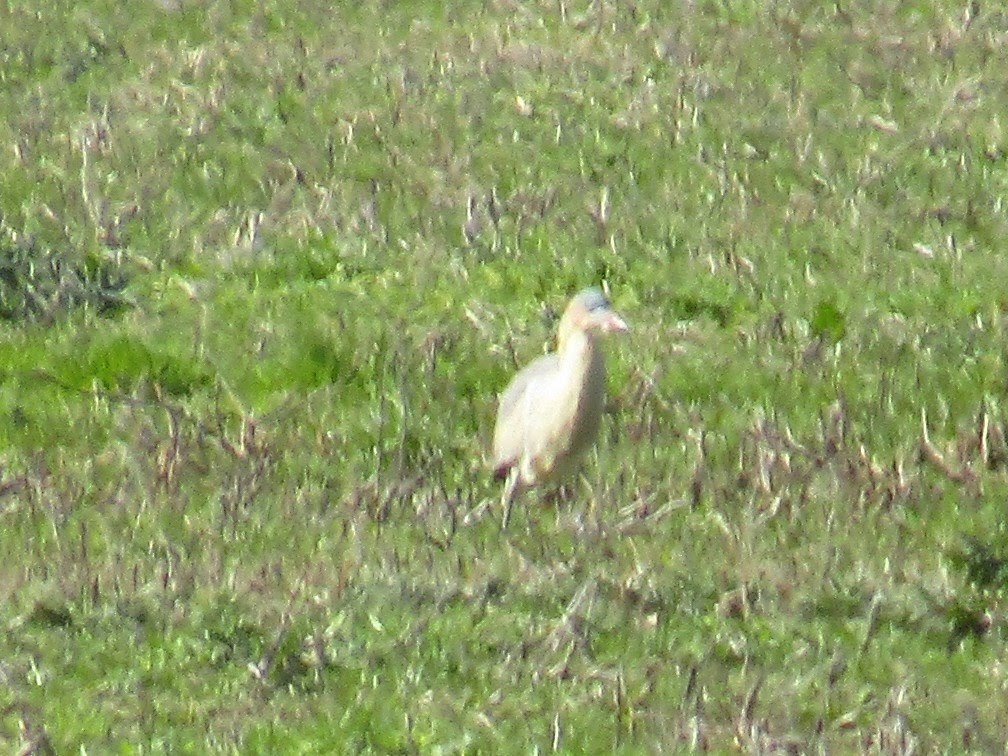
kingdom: Animalia
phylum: Chordata
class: Aves
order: Pelecaniformes
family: Ardeidae
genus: Syrigma
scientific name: Syrigma sibilatrix
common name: Whistling heron
